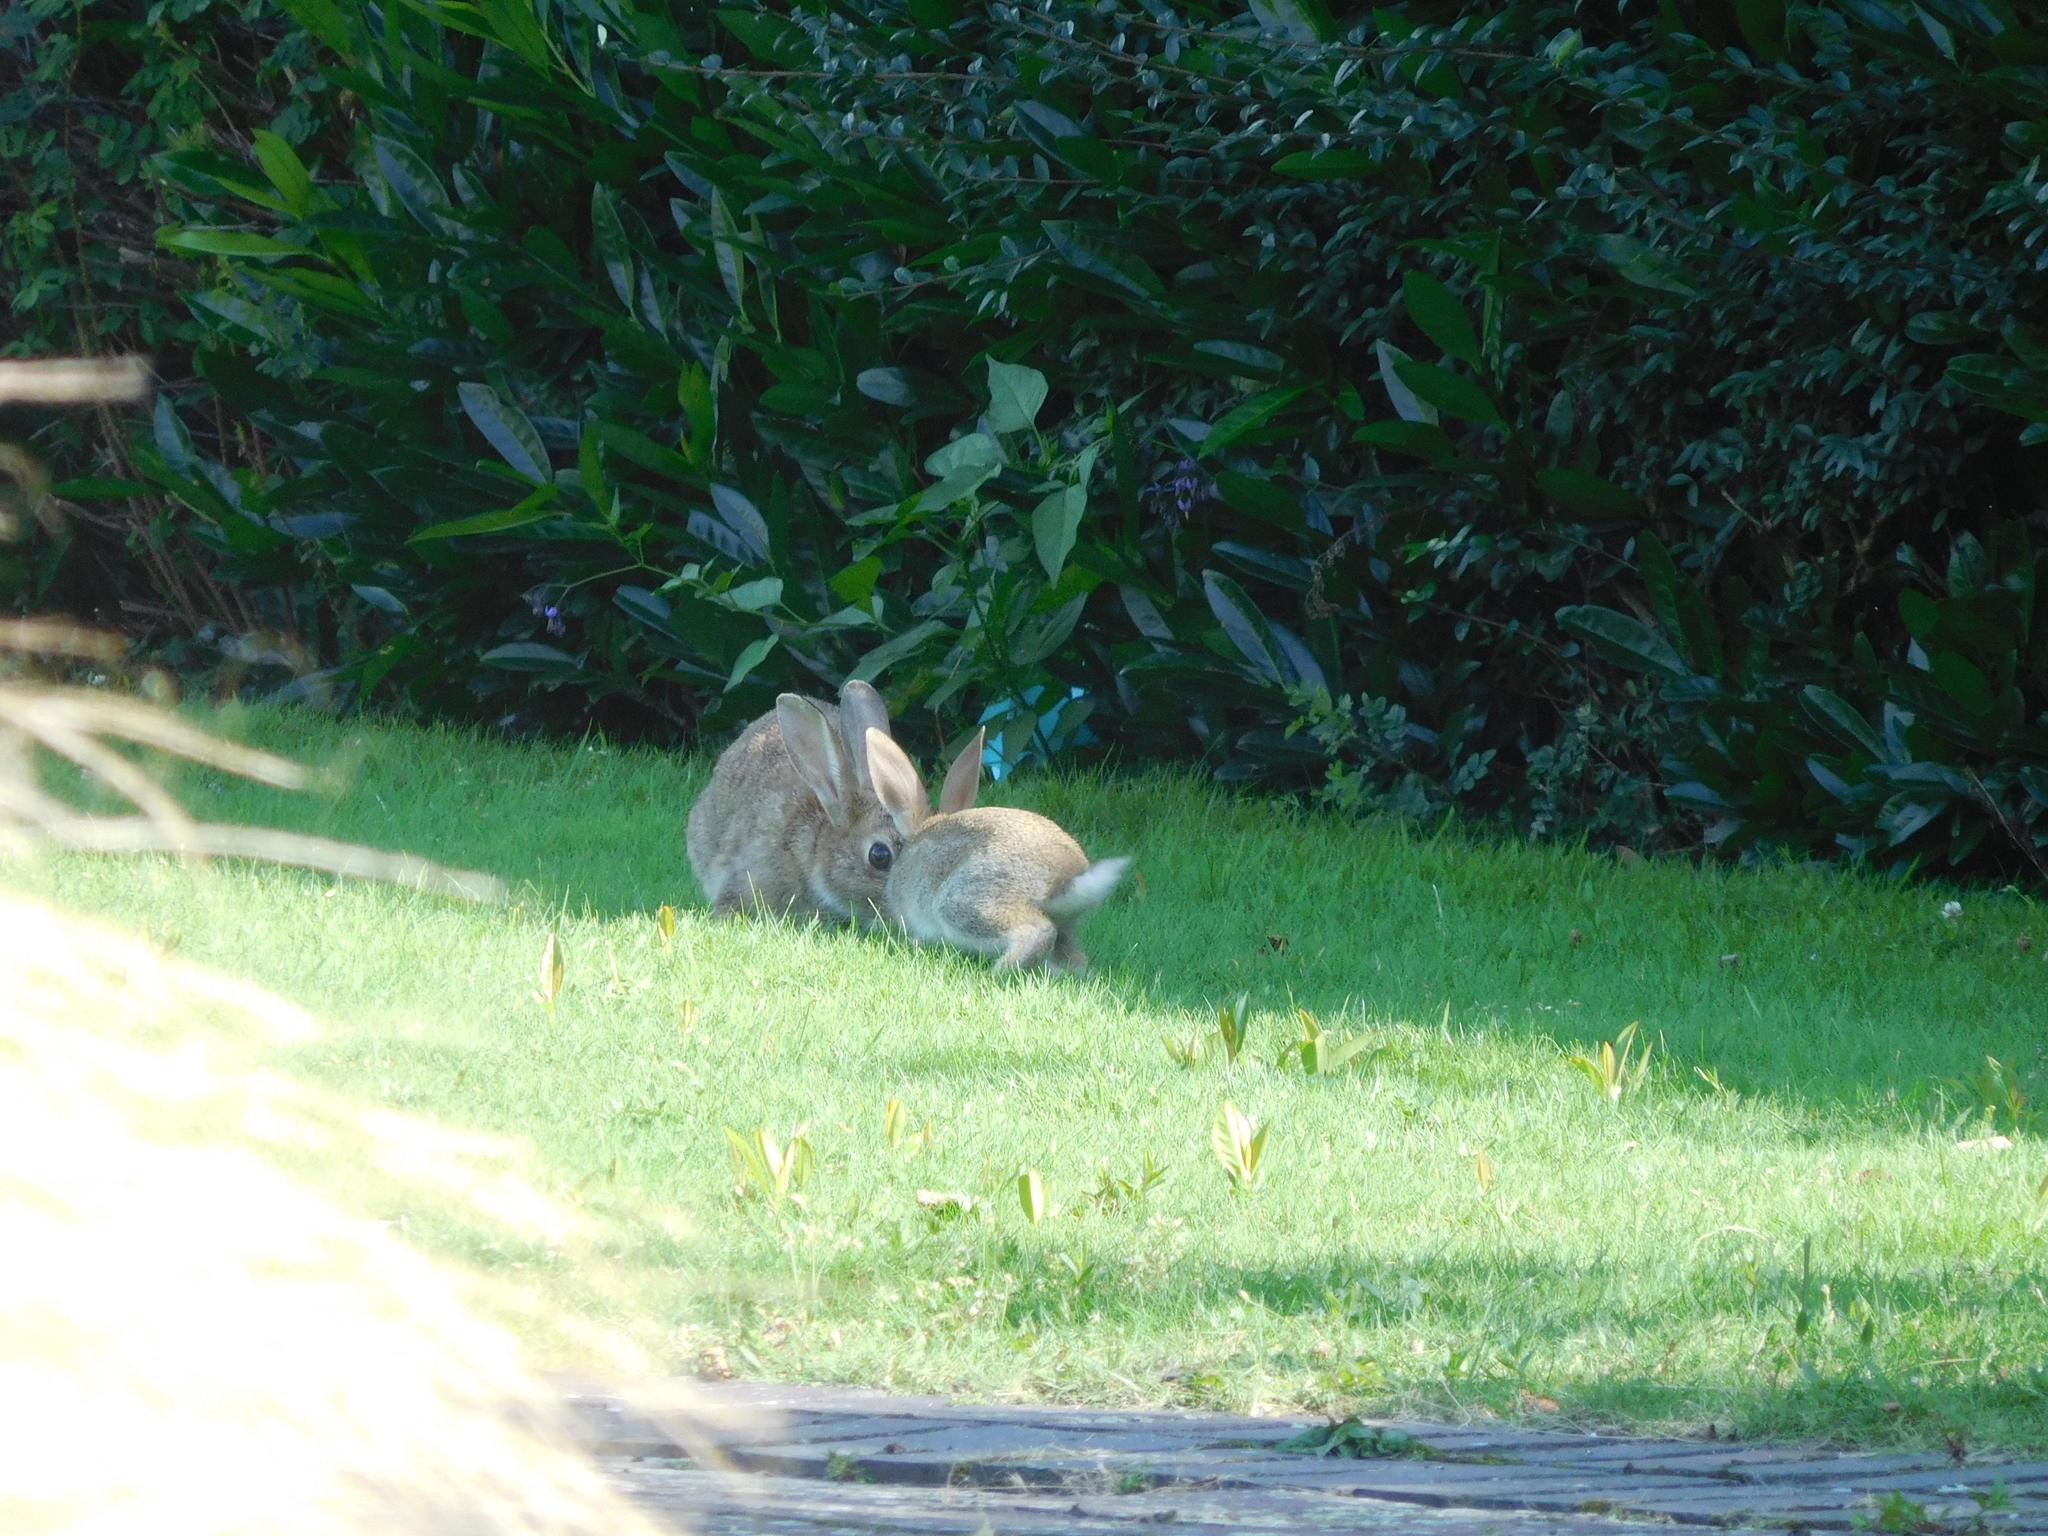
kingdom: Animalia
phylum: Chordata
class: Mammalia
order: Lagomorpha
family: Leporidae
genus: Oryctolagus
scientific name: Oryctolagus cuniculus
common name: European rabbit
